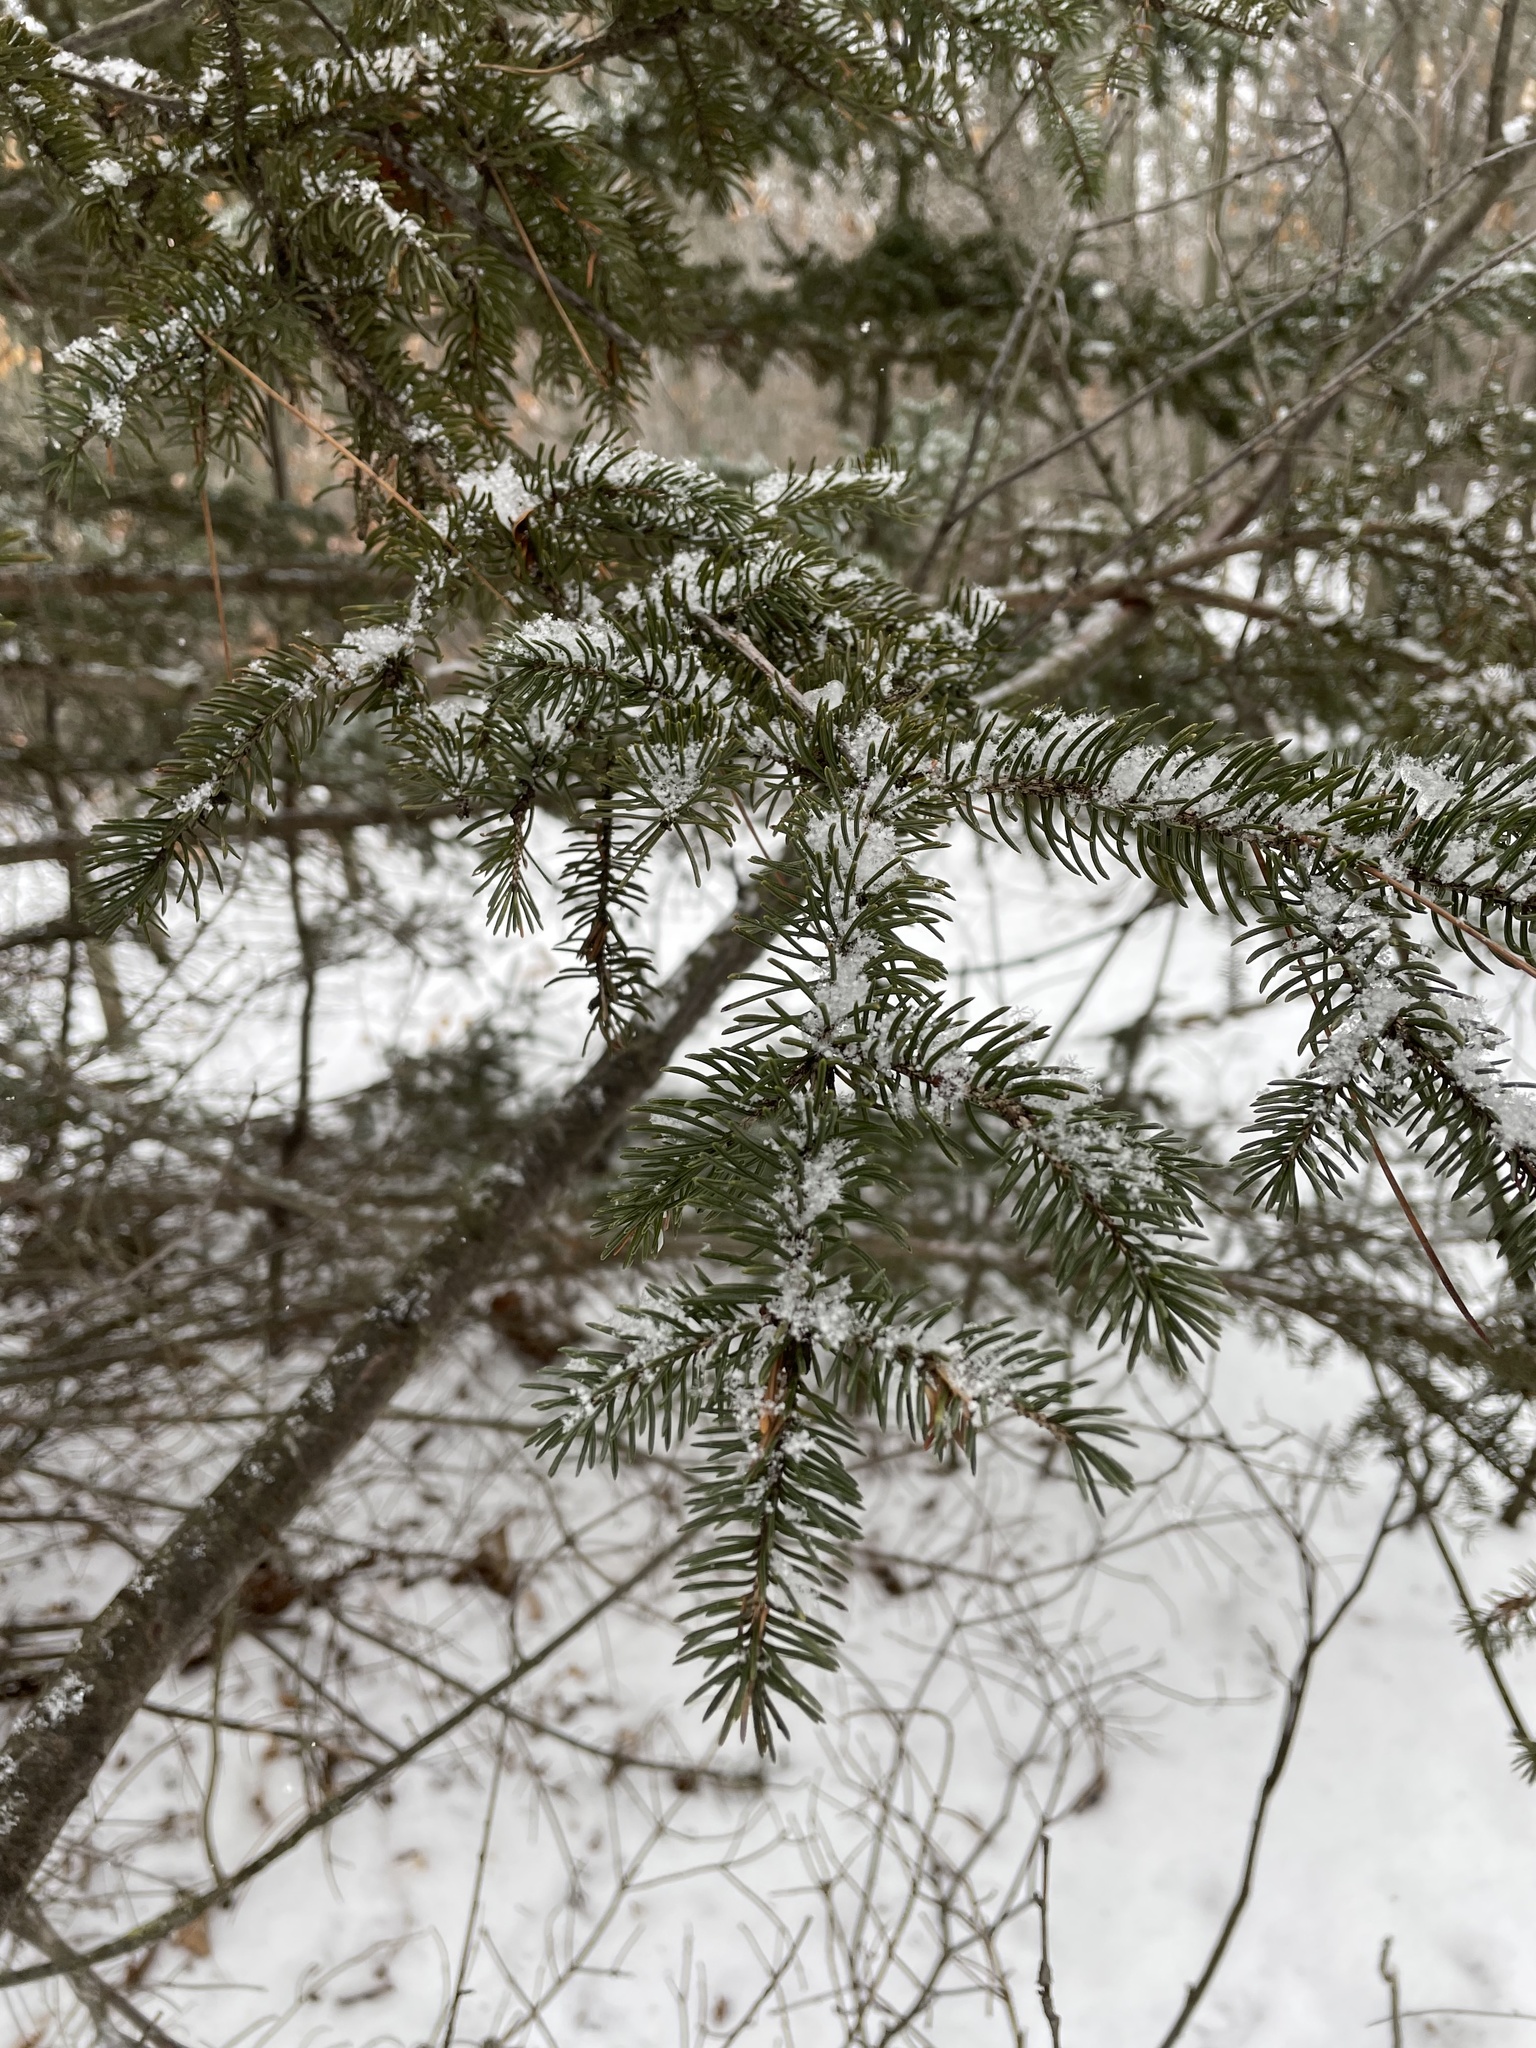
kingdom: Plantae
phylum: Tracheophyta
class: Pinopsida
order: Pinales
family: Pinaceae
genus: Picea
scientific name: Picea glauca
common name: White spruce
